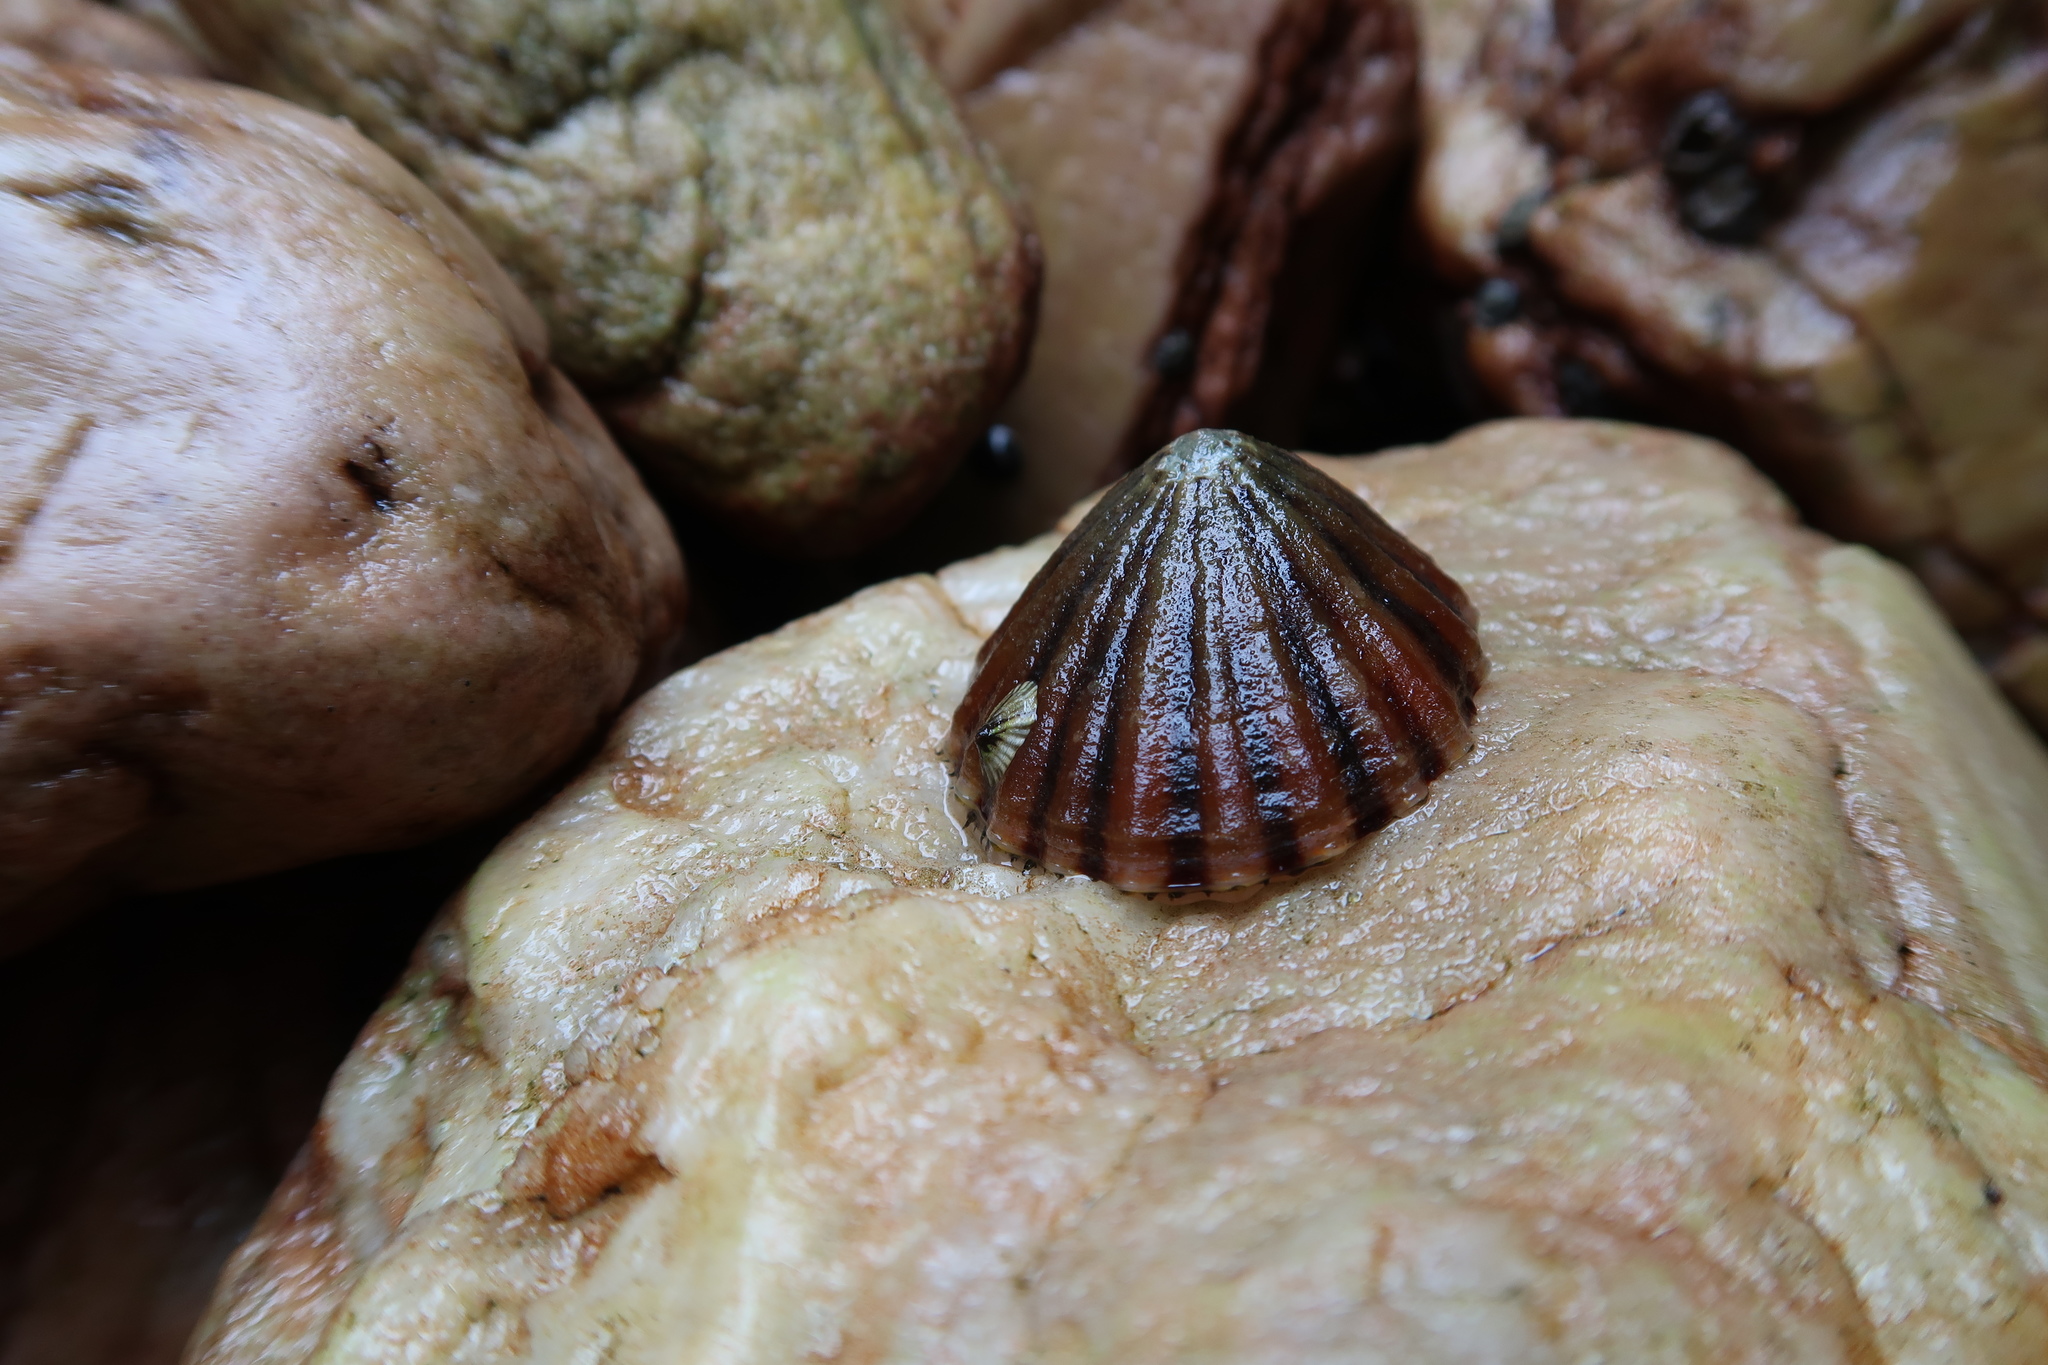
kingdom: Animalia
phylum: Mollusca
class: Gastropoda
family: Nacellidae
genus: Cellana
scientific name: Cellana solida
